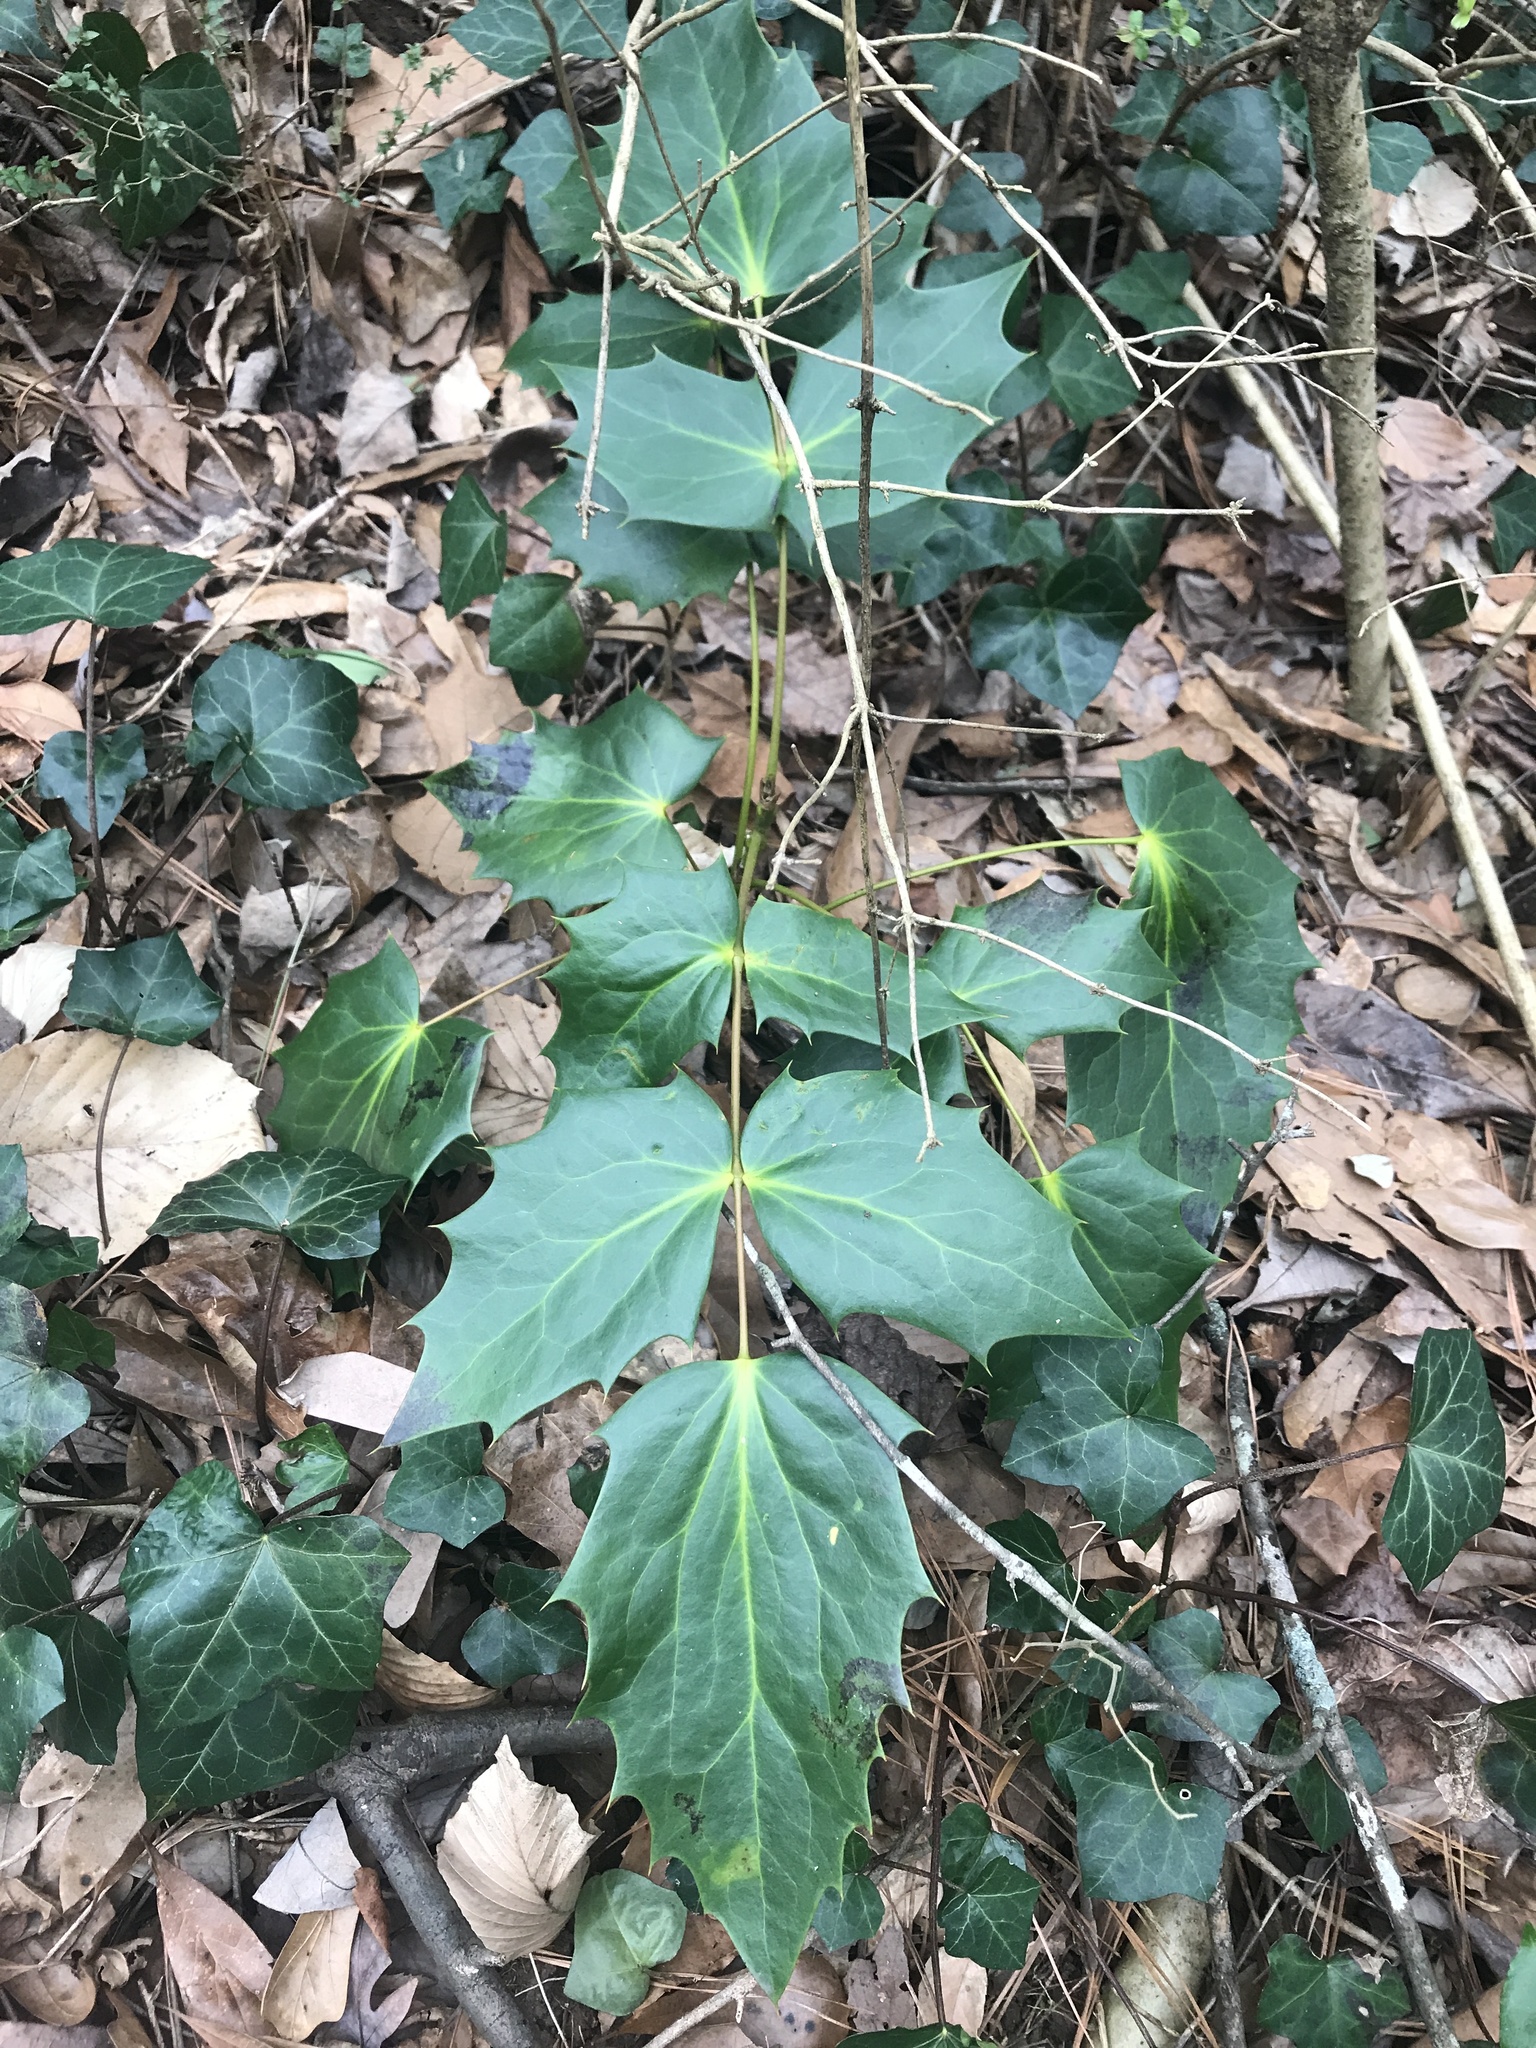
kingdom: Plantae
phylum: Tracheophyta
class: Magnoliopsida
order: Ranunculales
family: Berberidaceae
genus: Mahonia
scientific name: Mahonia bealei
